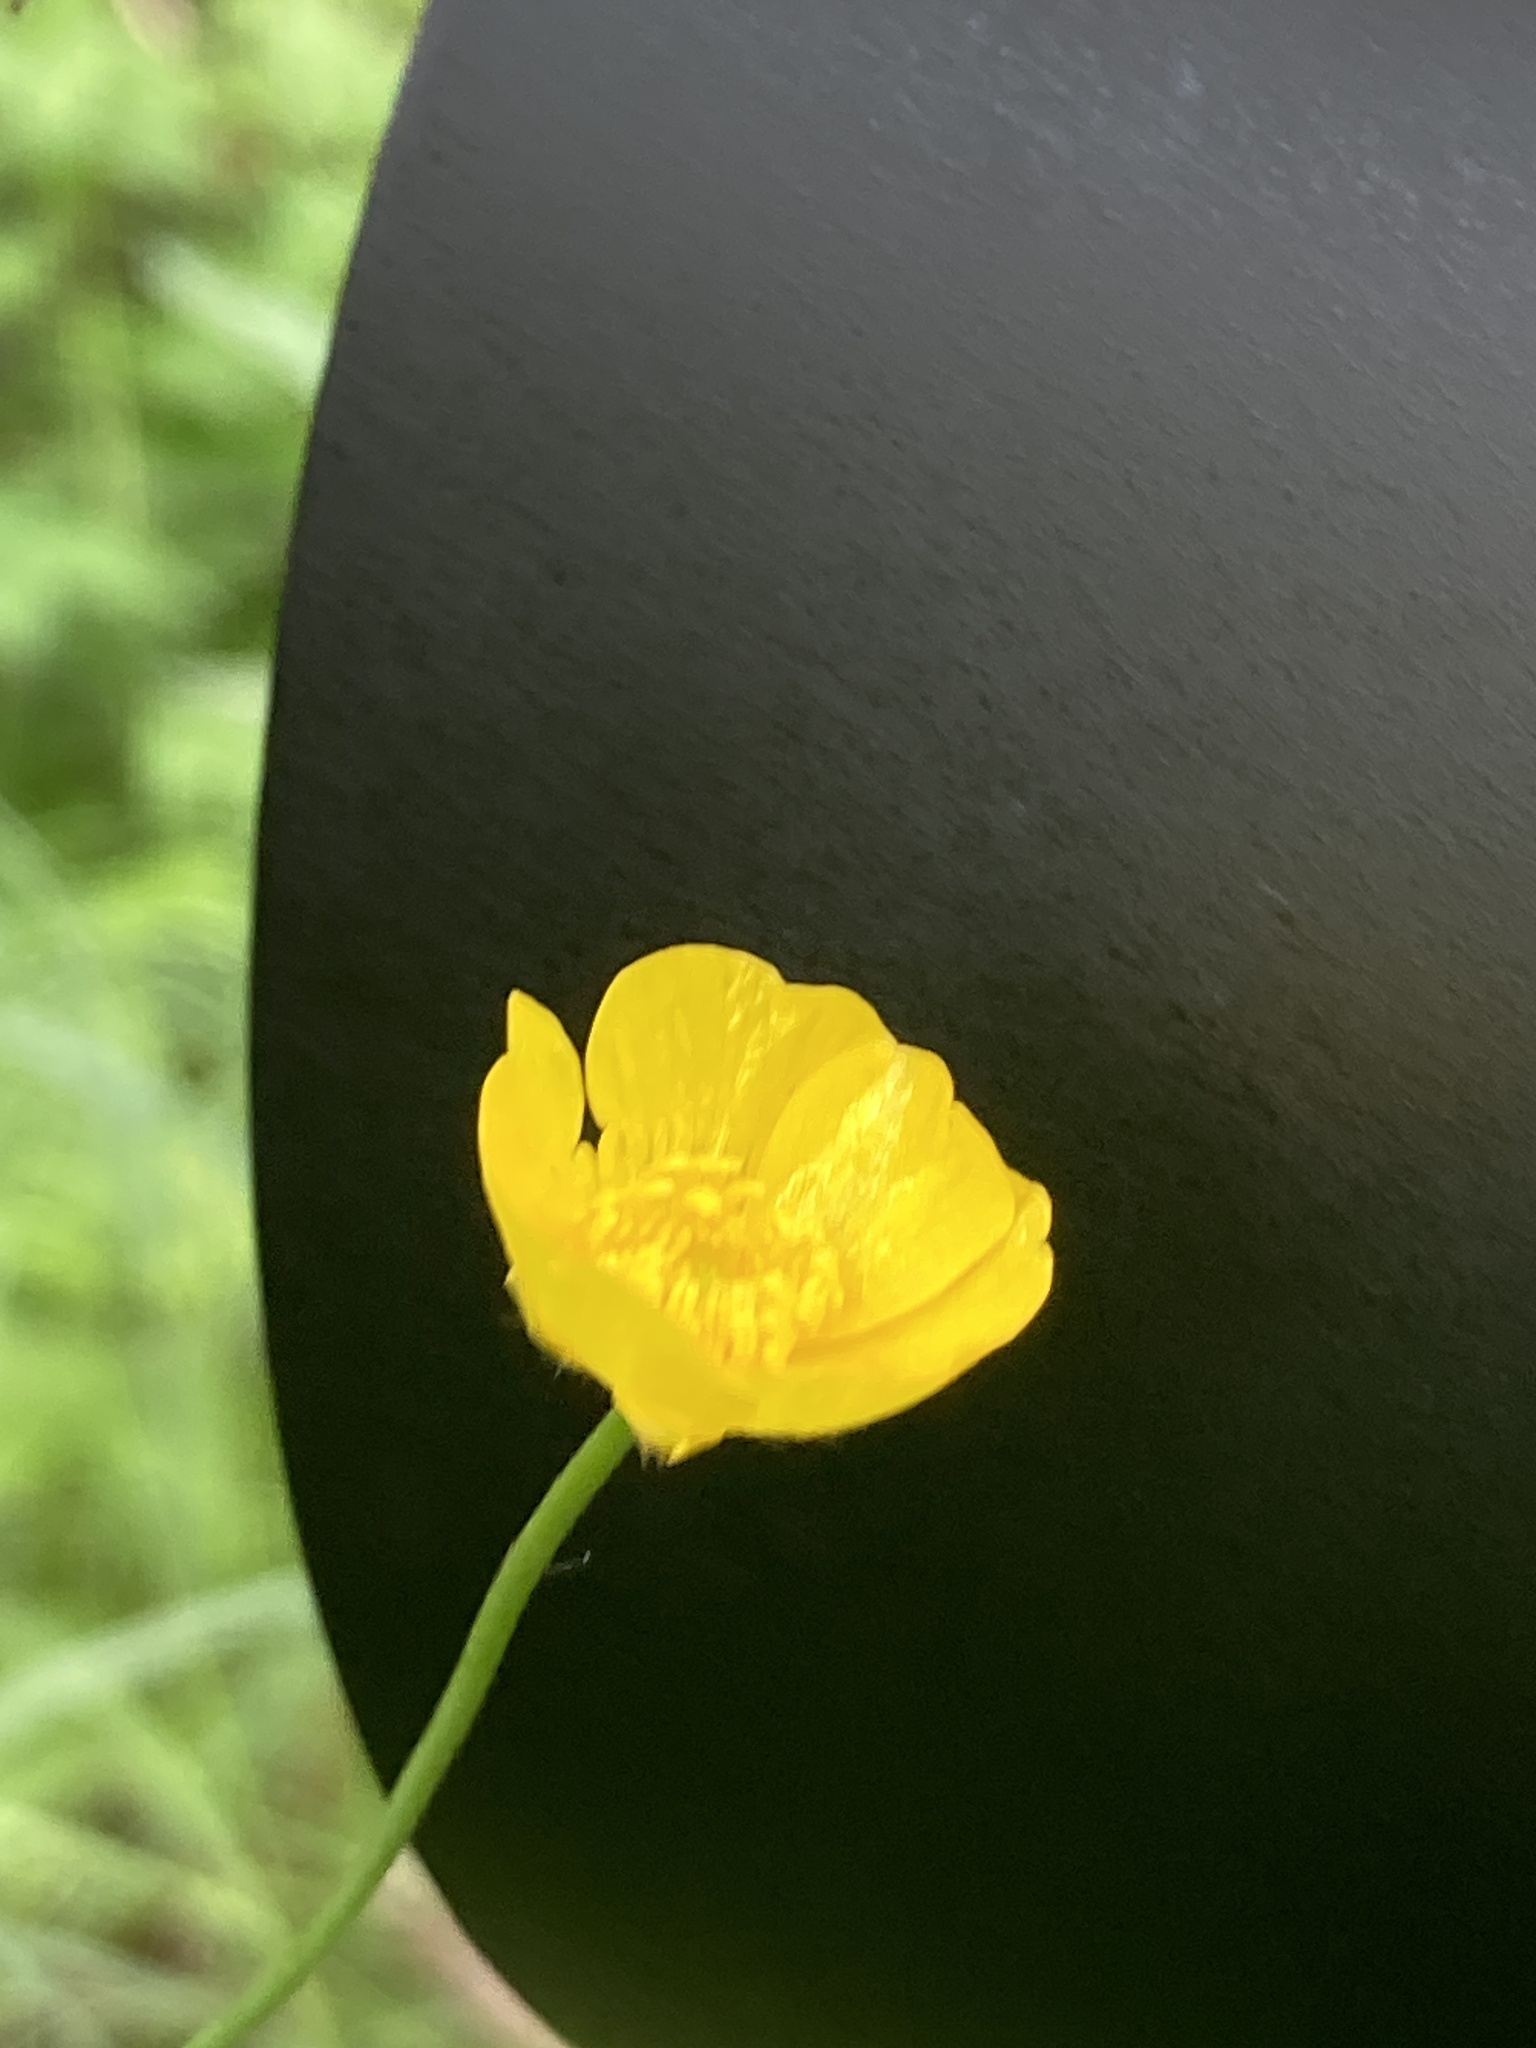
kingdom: Plantae
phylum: Tracheophyta
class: Magnoliopsida
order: Ranunculales
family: Ranunculaceae
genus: Ranunculus
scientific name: Ranunculus acris
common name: Meadow buttercup
